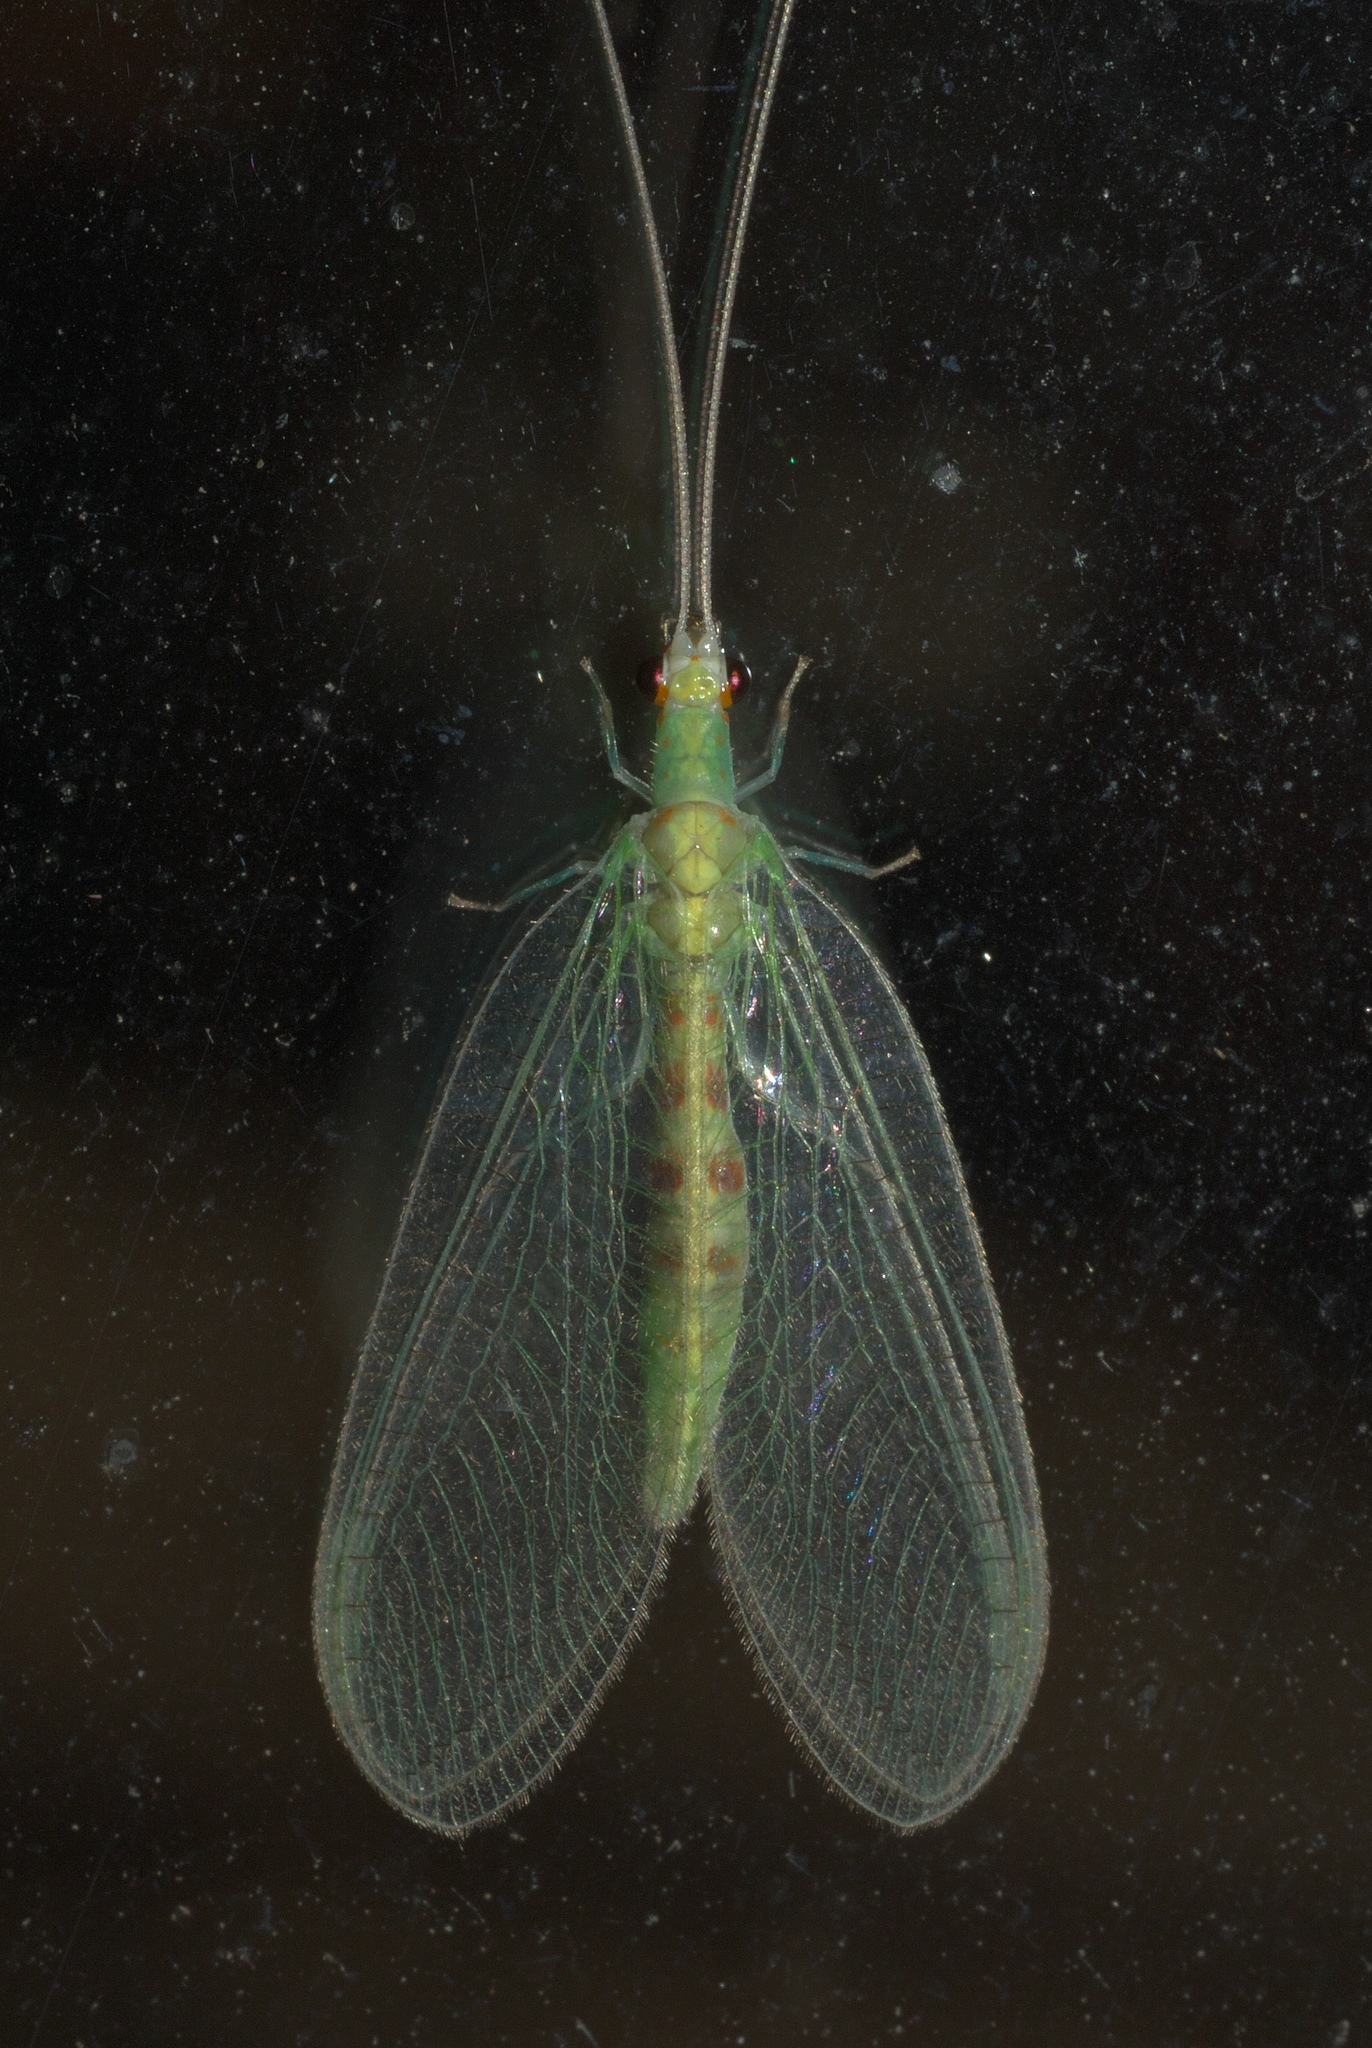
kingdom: Animalia
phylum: Arthropoda
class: Insecta
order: Neuroptera
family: Chrysopidae
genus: Chrysopa
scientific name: Chrysopa quadripunctata
